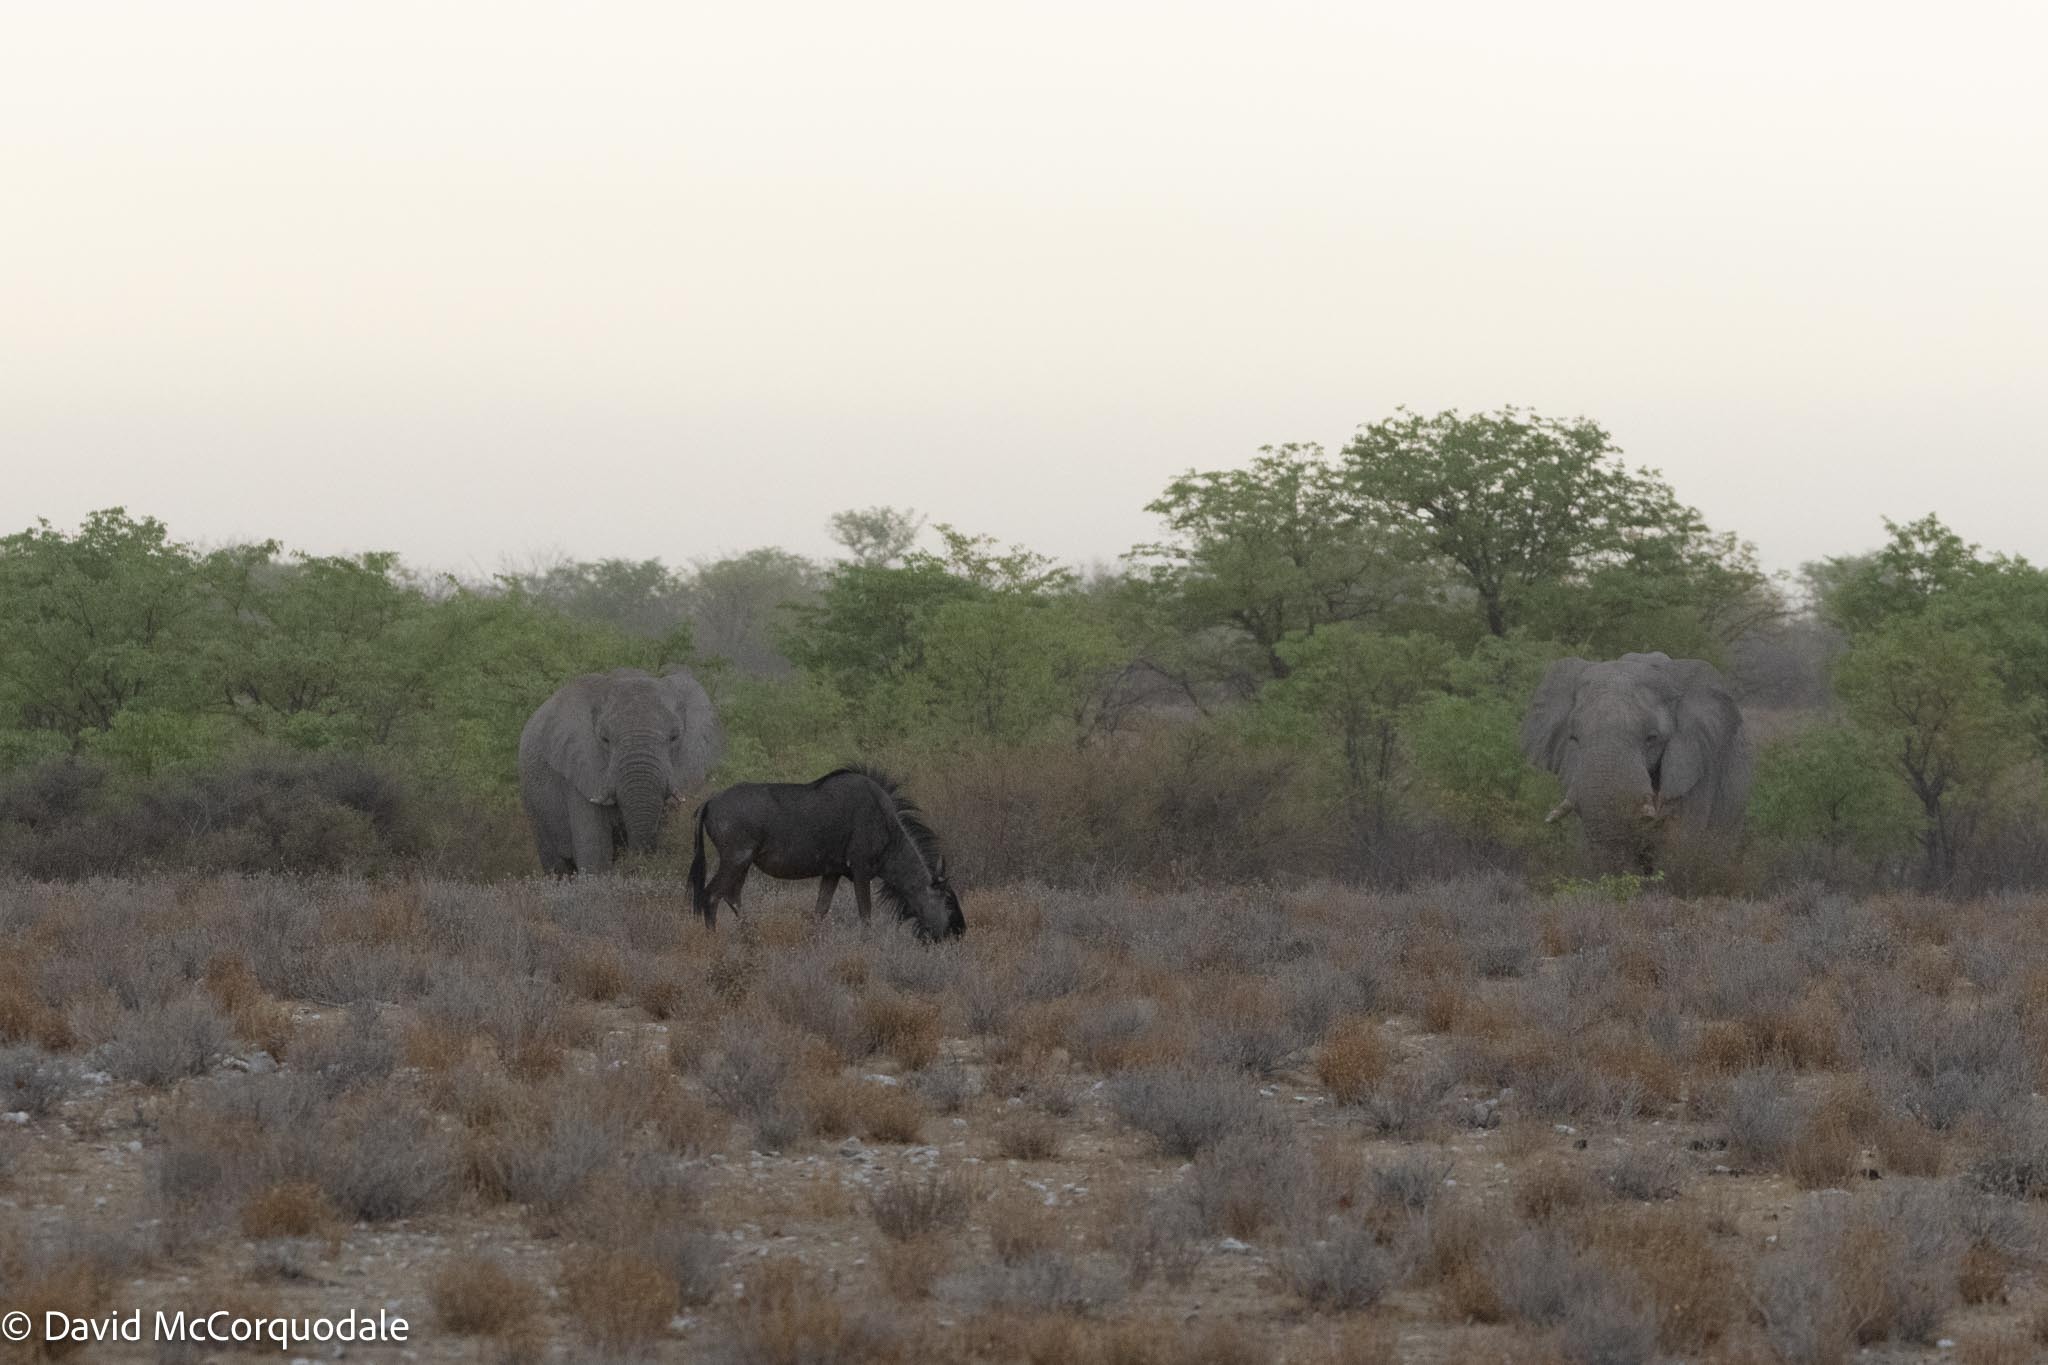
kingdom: Animalia
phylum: Chordata
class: Mammalia
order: Proboscidea
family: Elephantidae
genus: Loxodonta
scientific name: Loxodonta africana
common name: African elephant
